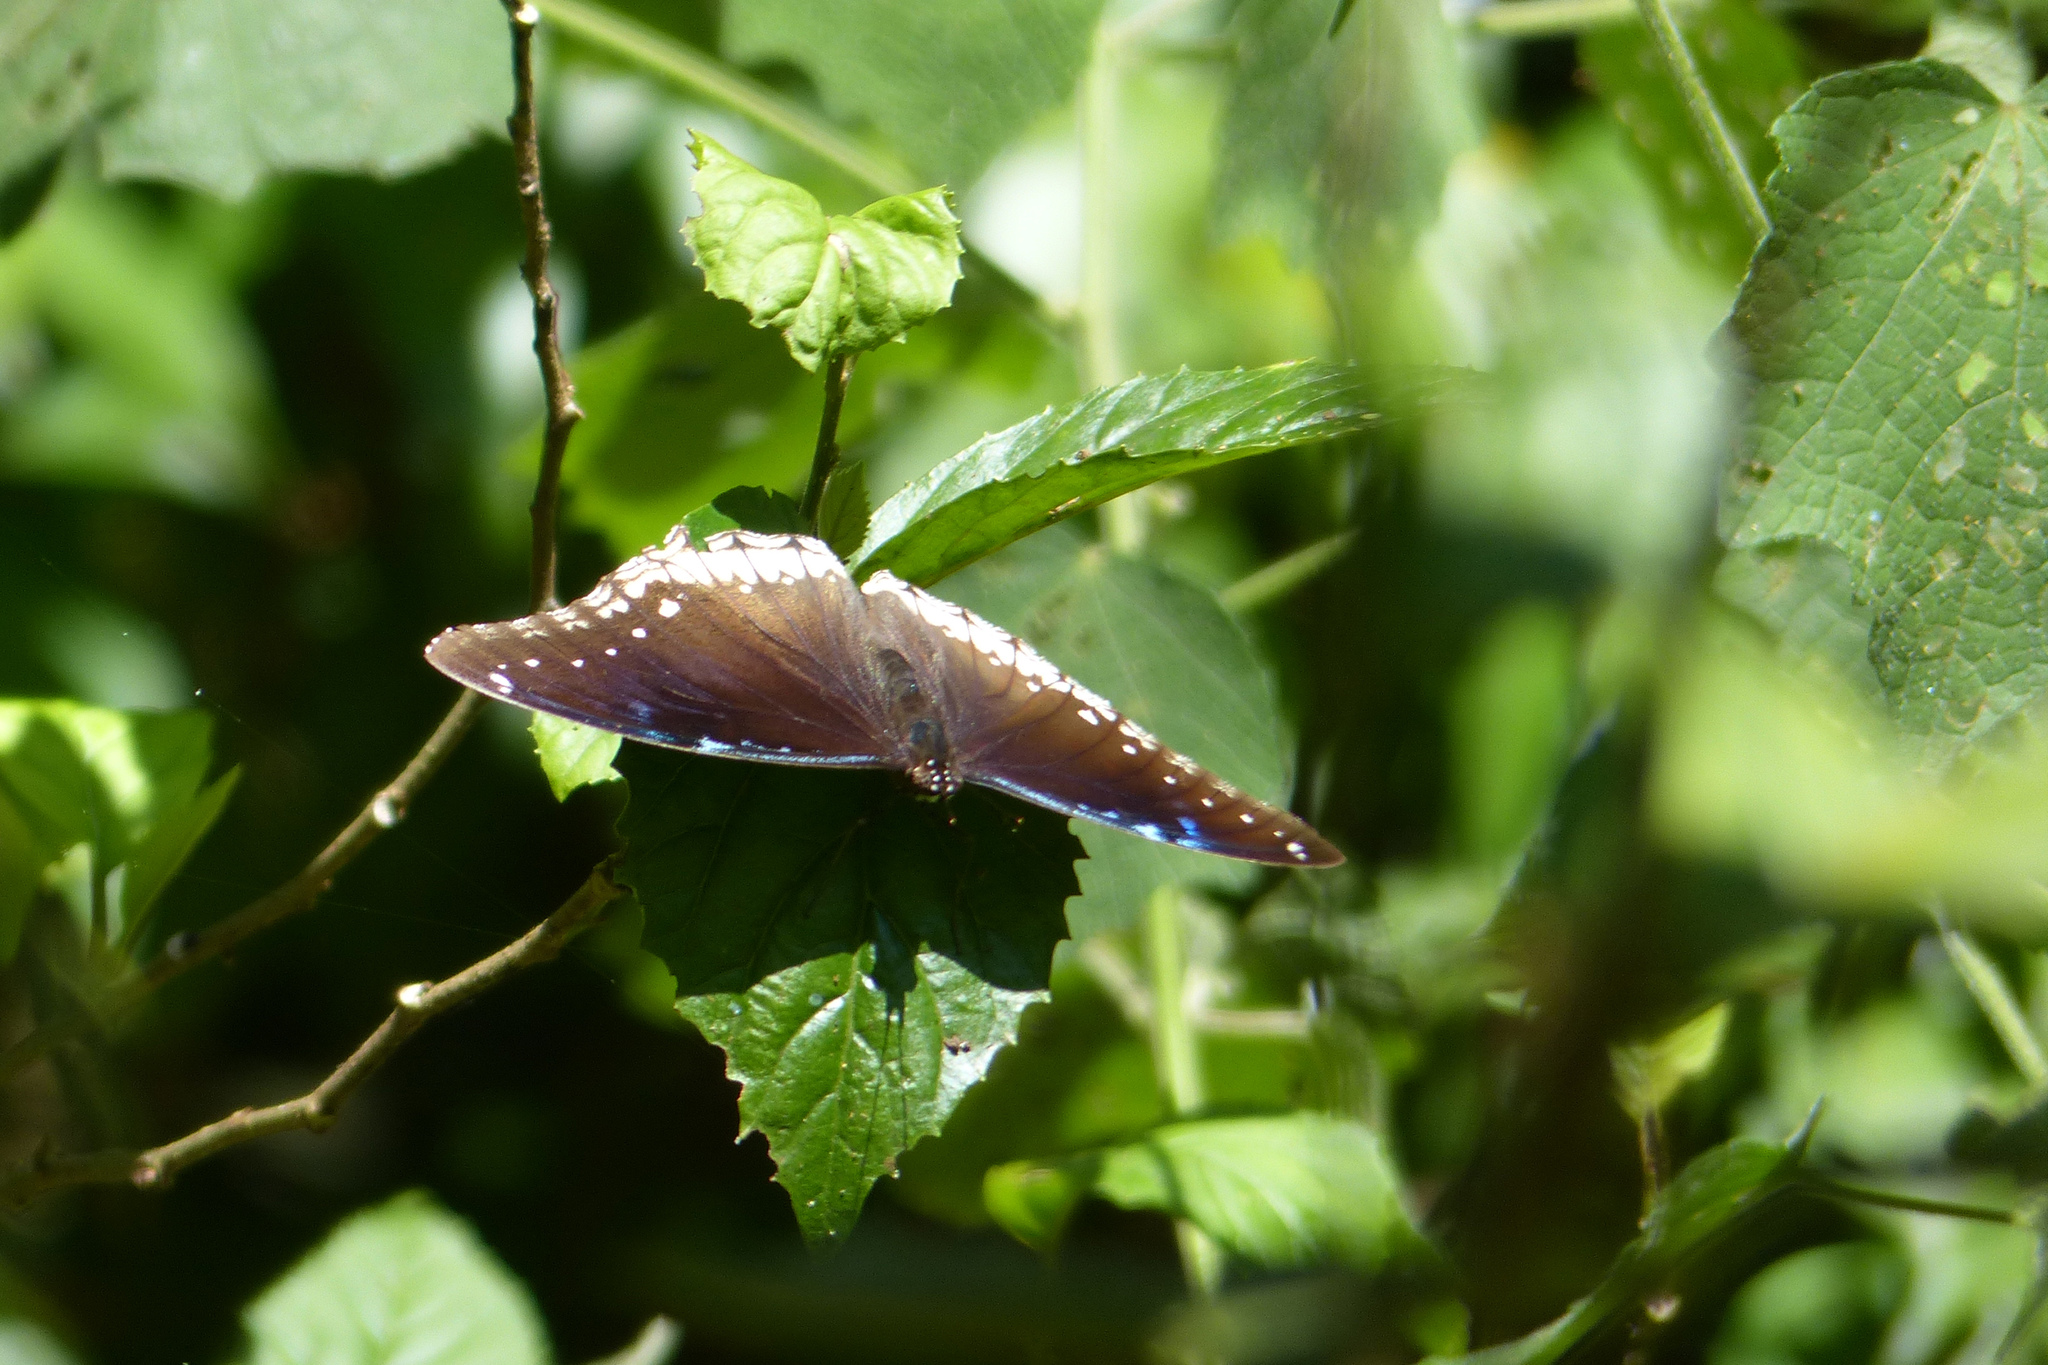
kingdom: Animalia
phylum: Arthropoda
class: Insecta
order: Lepidoptera
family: Nymphalidae
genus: Hypolimnas
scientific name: Hypolimnas bolina
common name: Great eggfly
